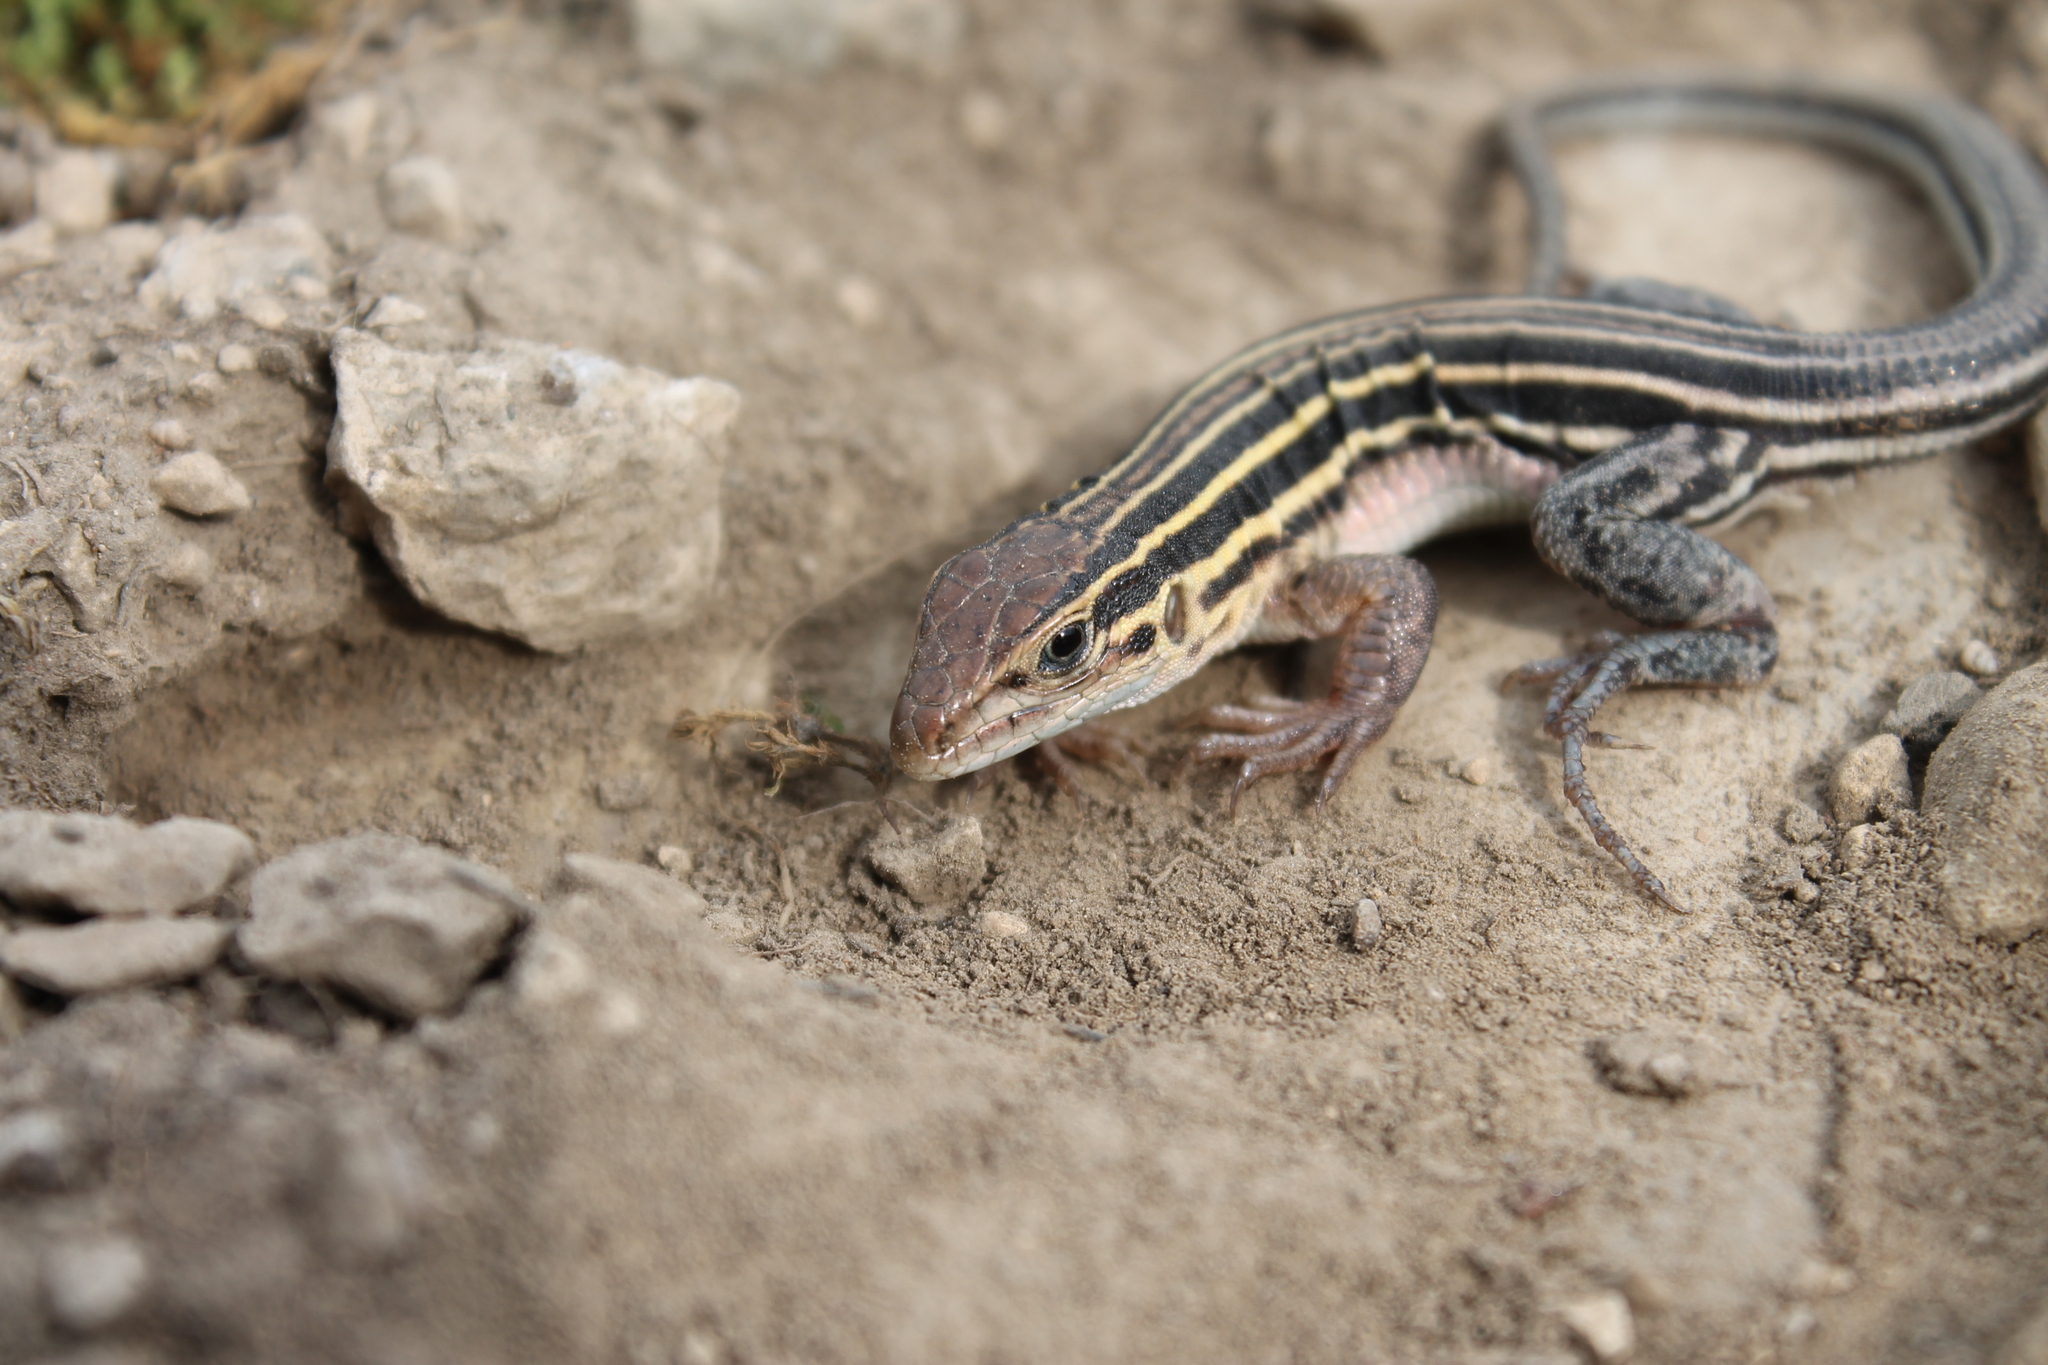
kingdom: Animalia
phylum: Chordata
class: Squamata
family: Teiidae
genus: Aspidoscelis
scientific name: Aspidoscelis sexlineatus
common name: Six-lined racerunner
